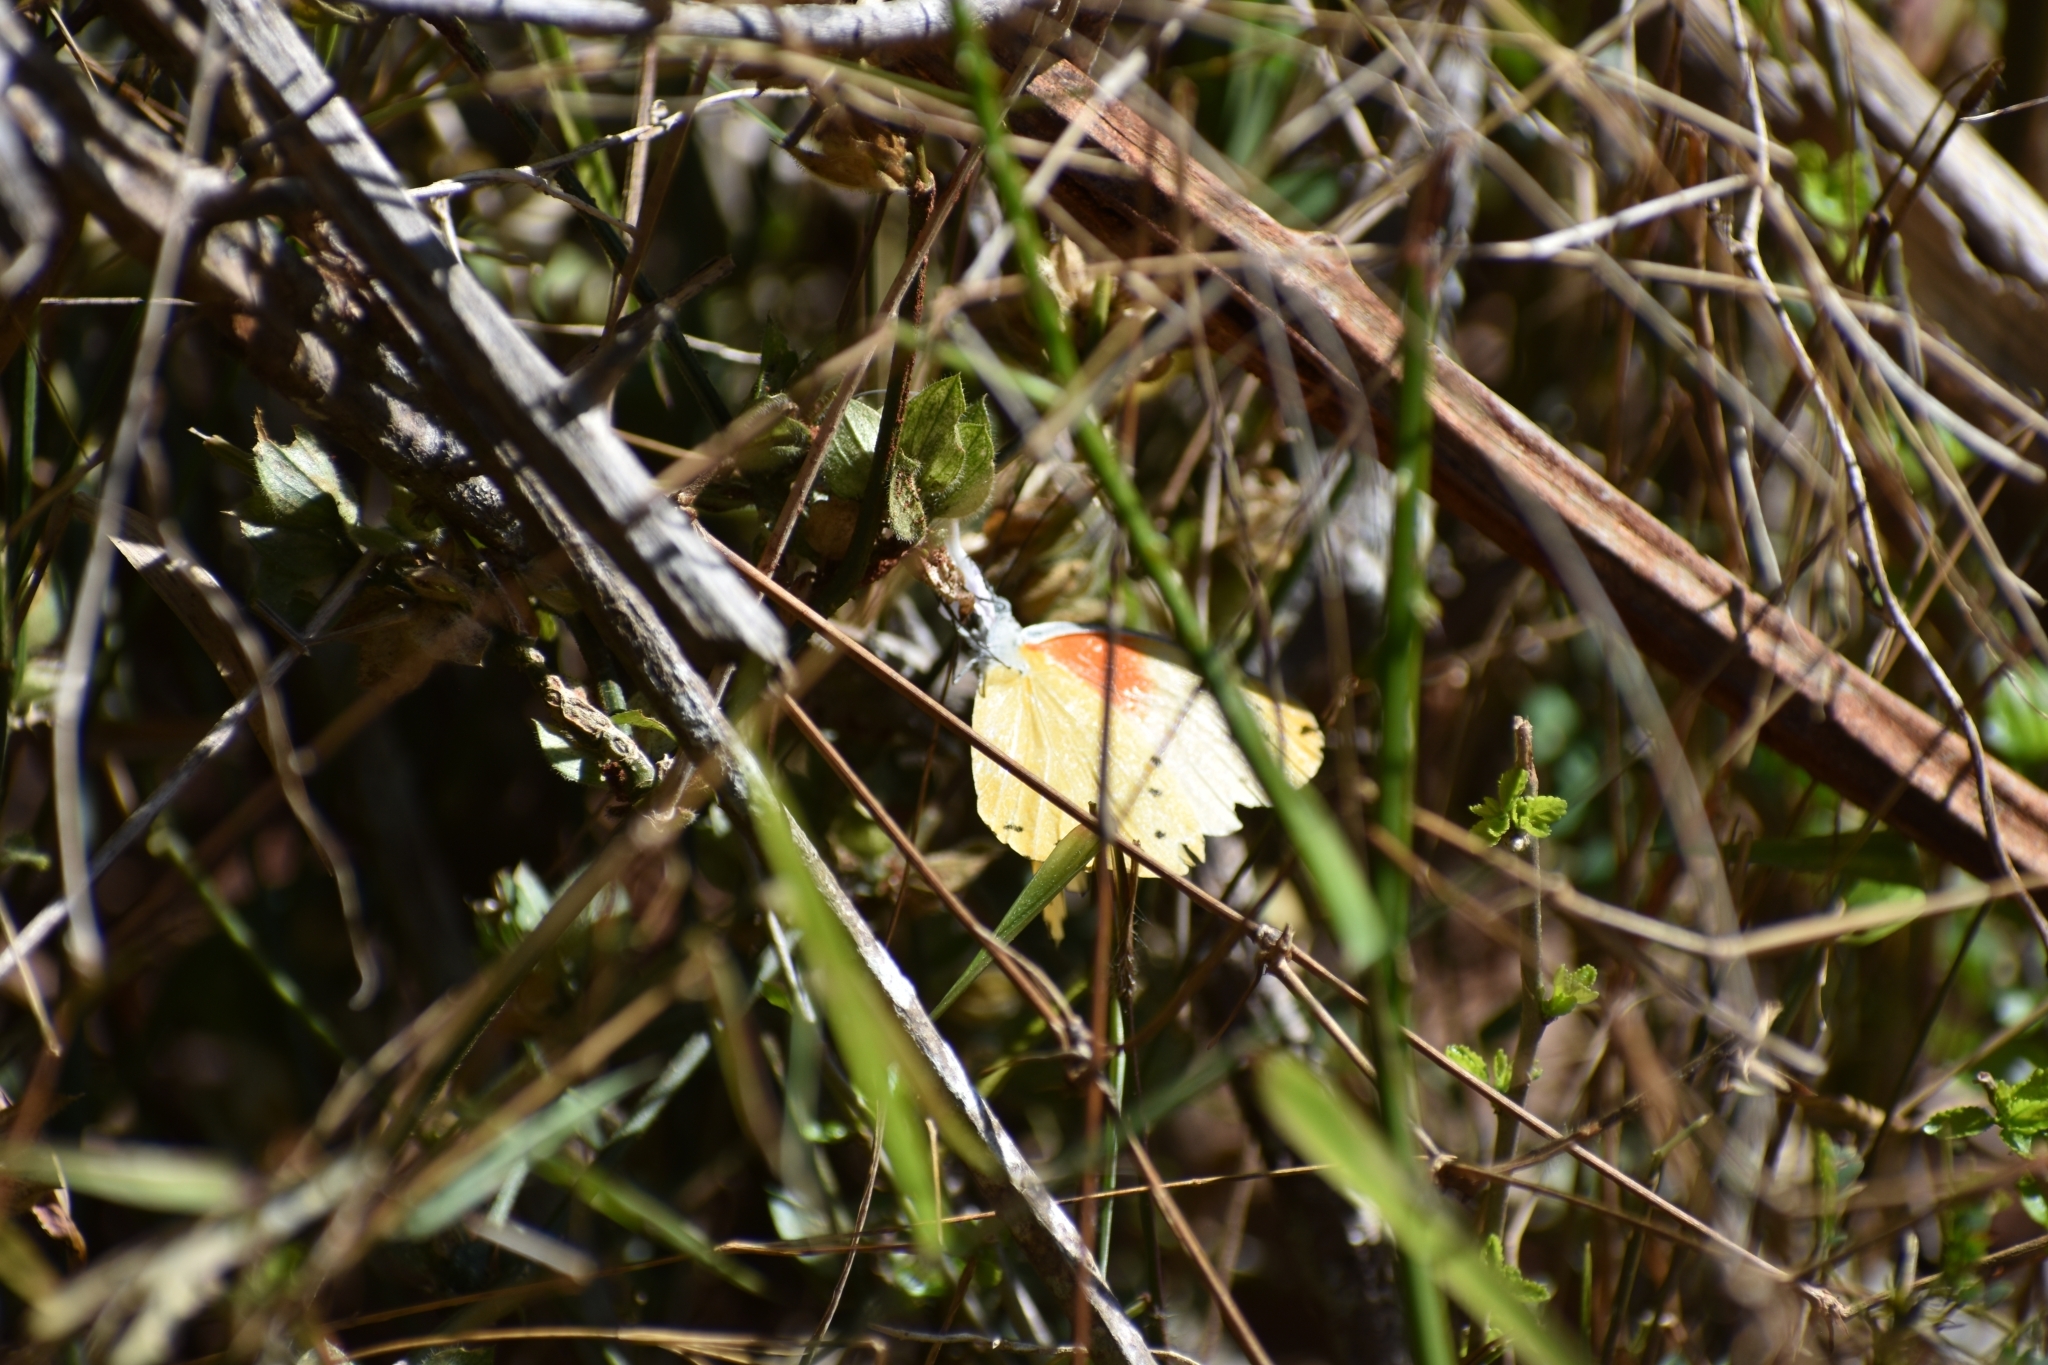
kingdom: Animalia
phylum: Arthropoda
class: Insecta
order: Lepidoptera
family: Pieridae
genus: Mylothris
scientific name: Mylothris agathina
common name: Eastern dotted border
